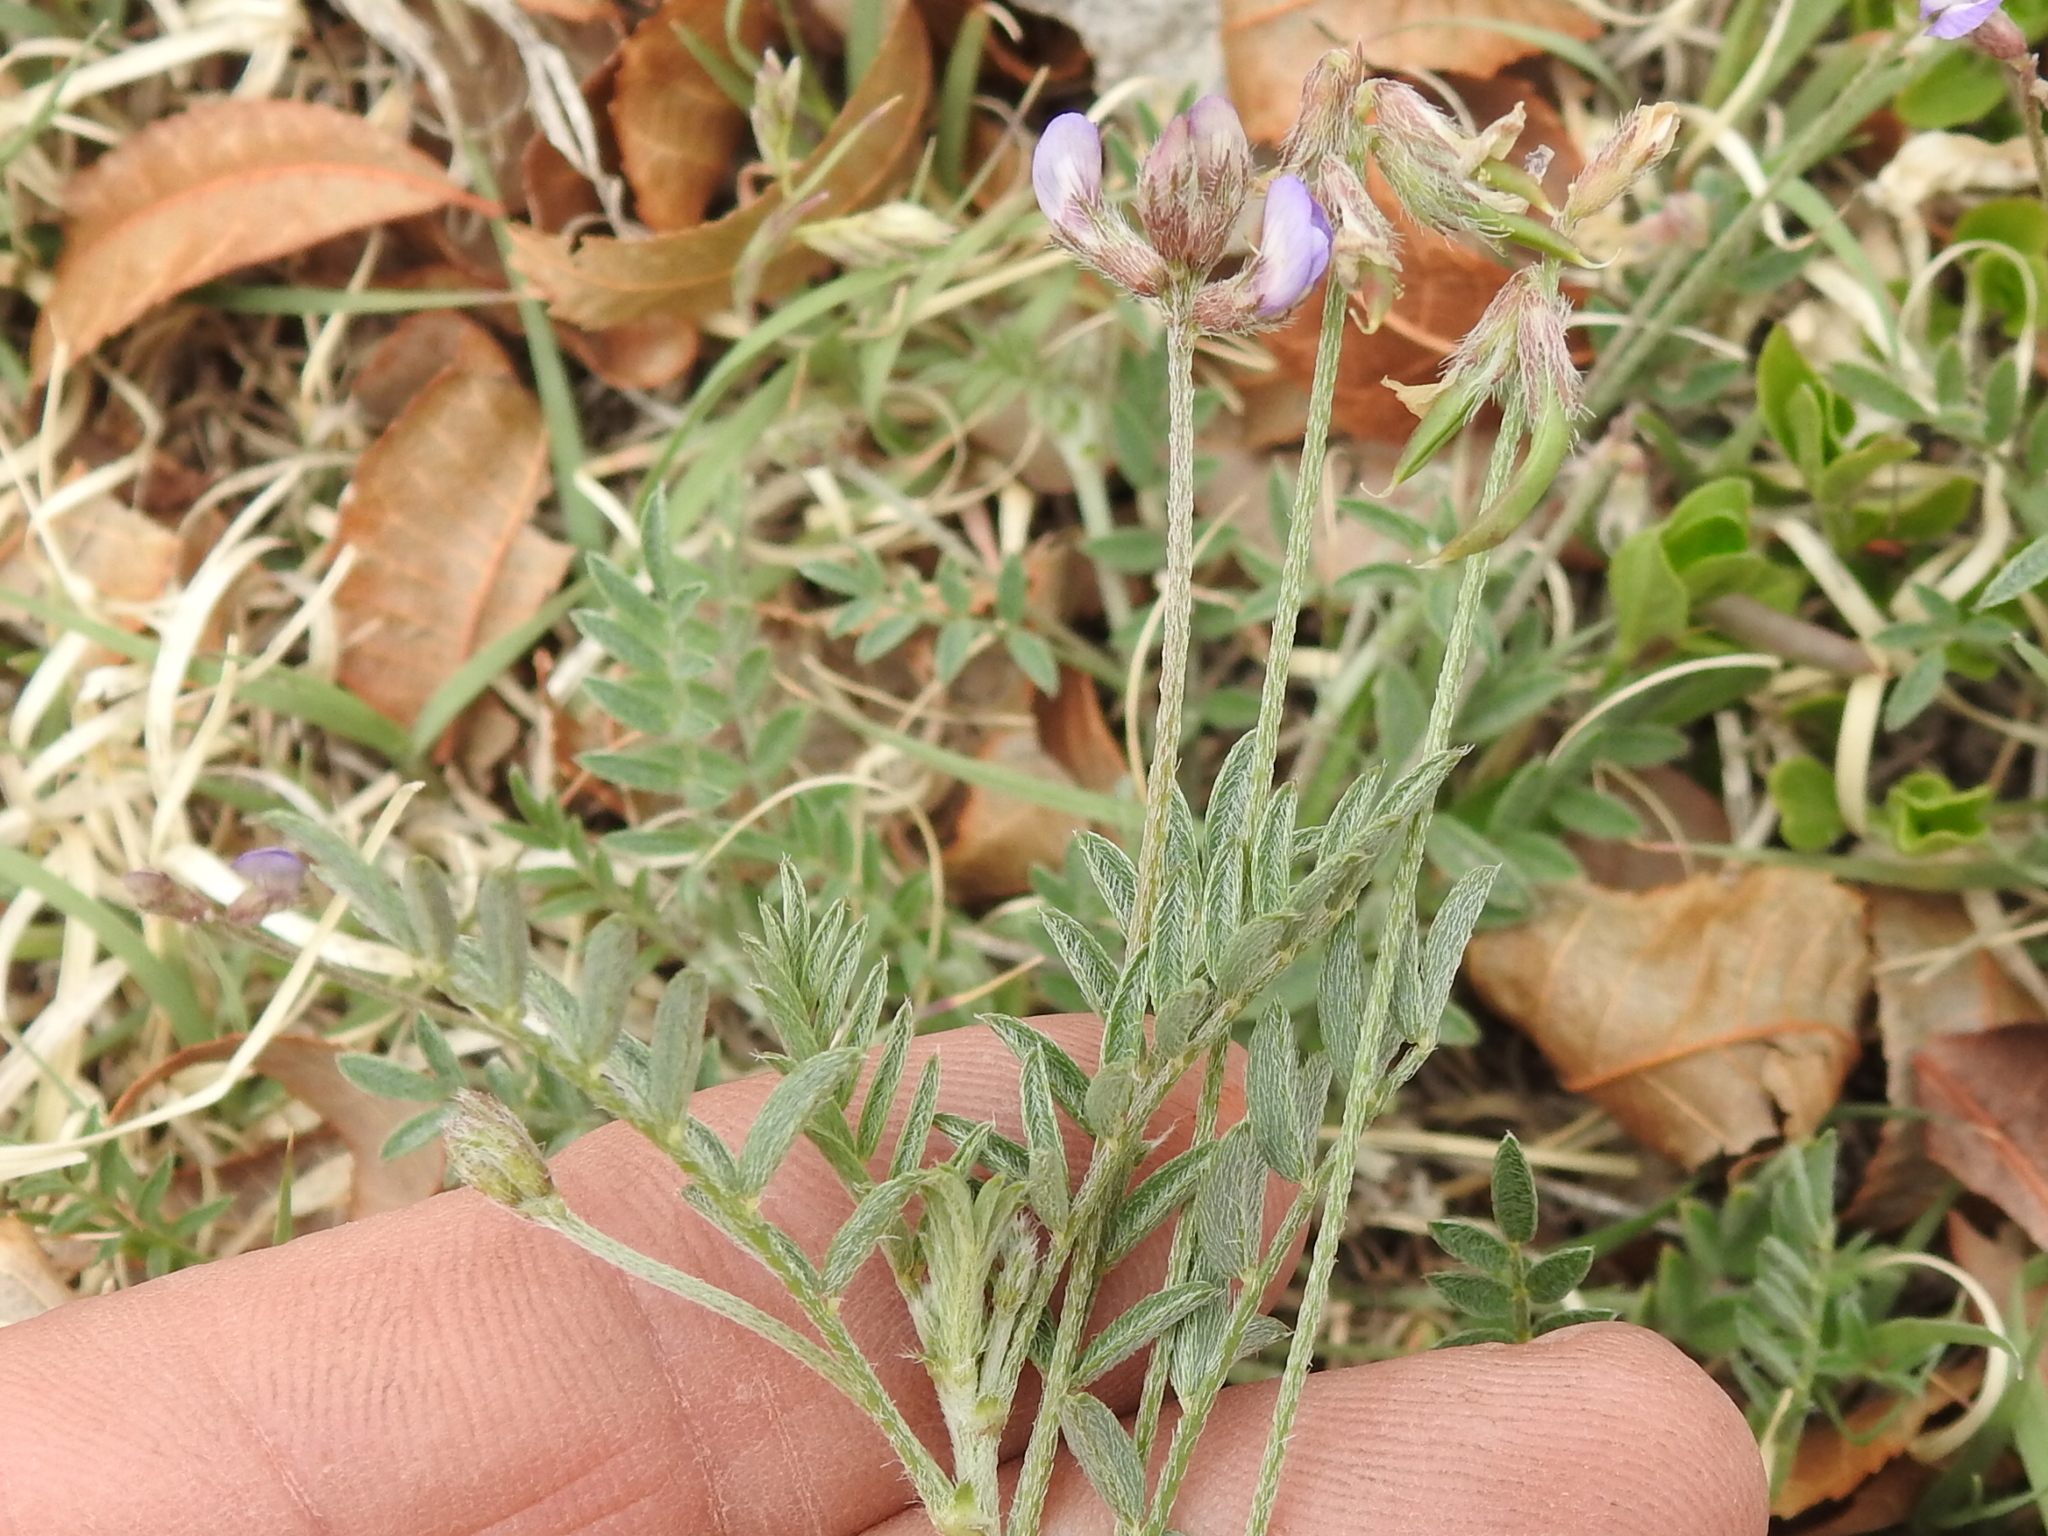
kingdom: Plantae
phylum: Tracheophyta
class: Magnoliopsida
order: Fabales
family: Fabaceae
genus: Astragalus
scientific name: Astragalus nuttallianus
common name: Smallflowered milkvetch
